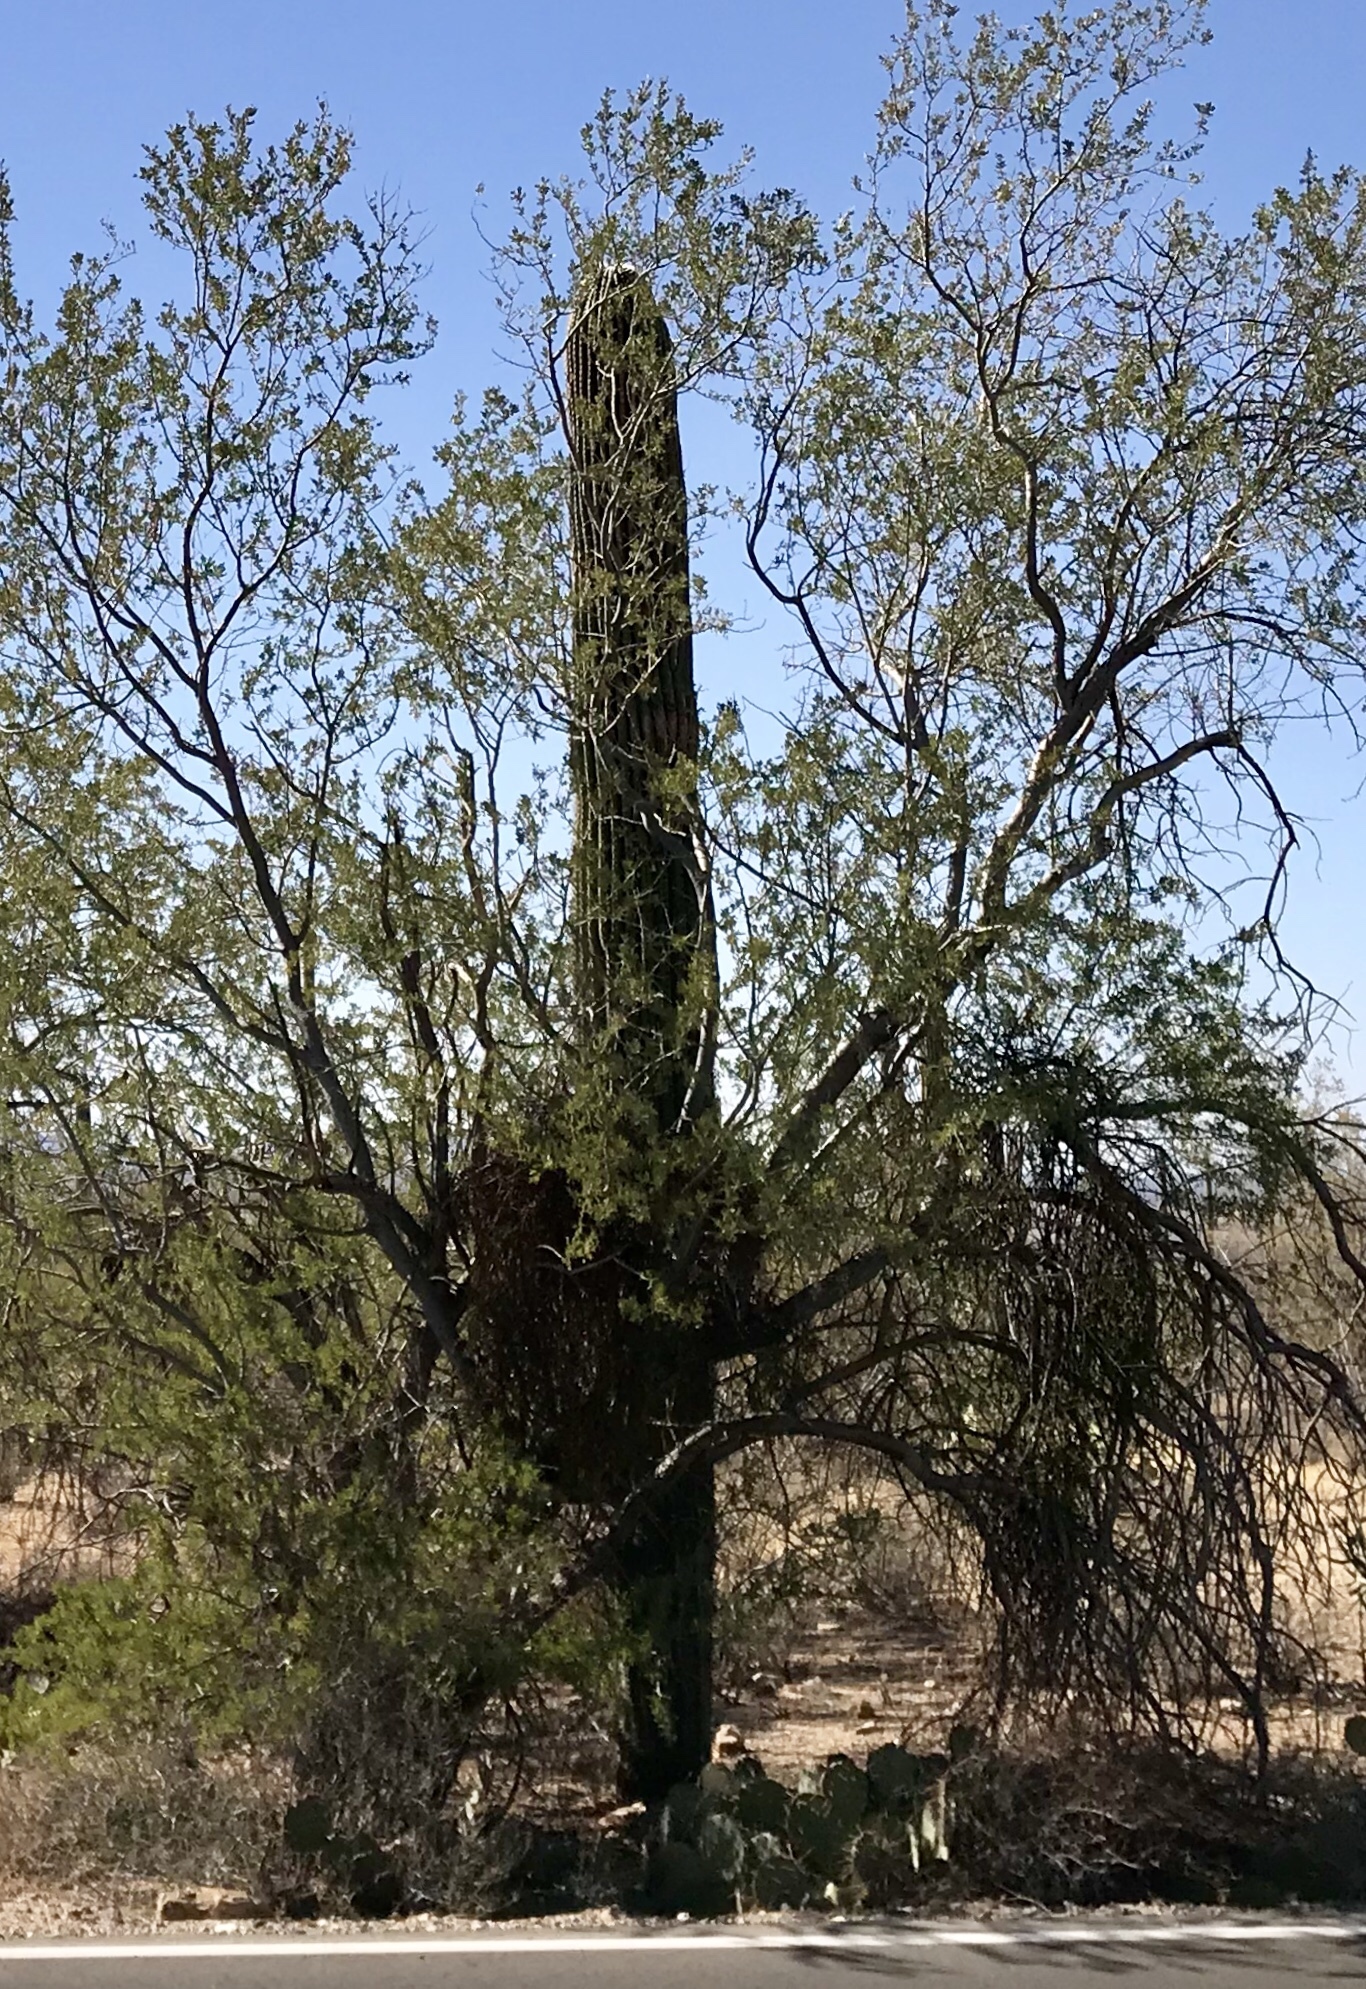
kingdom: Plantae
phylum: Tracheophyta
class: Magnoliopsida
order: Caryophyllales
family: Cactaceae
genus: Carnegiea
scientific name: Carnegiea gigantea
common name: Saguaro
